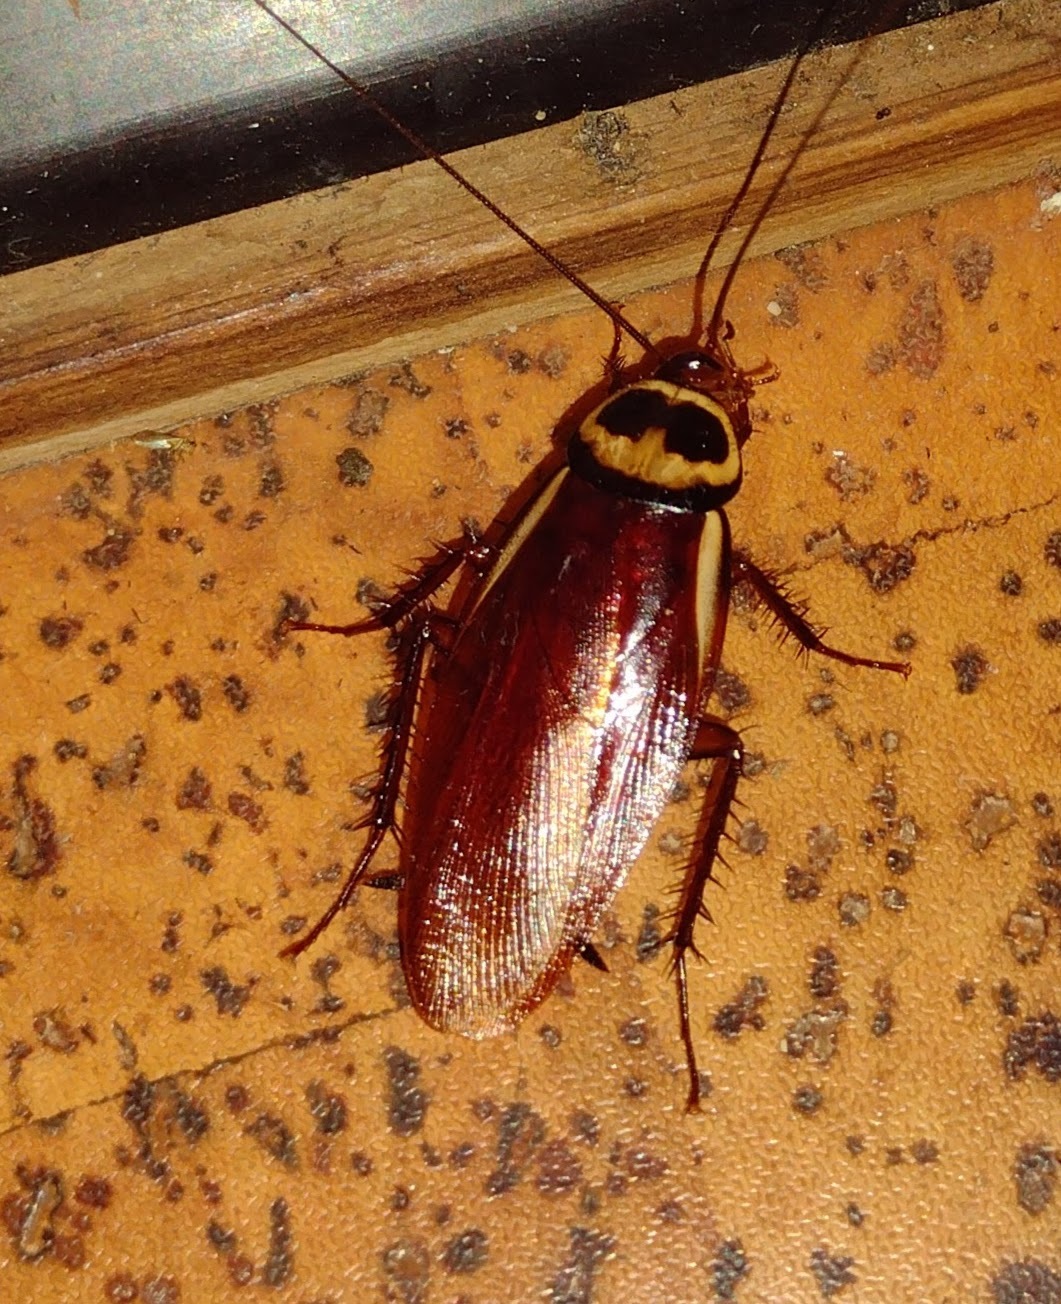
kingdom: Animalia
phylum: Arthropoda
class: Insecta
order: Blattodea
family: Blattidae
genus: Periplaneta
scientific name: Periplaneta australasiae
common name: Australian cockroach
